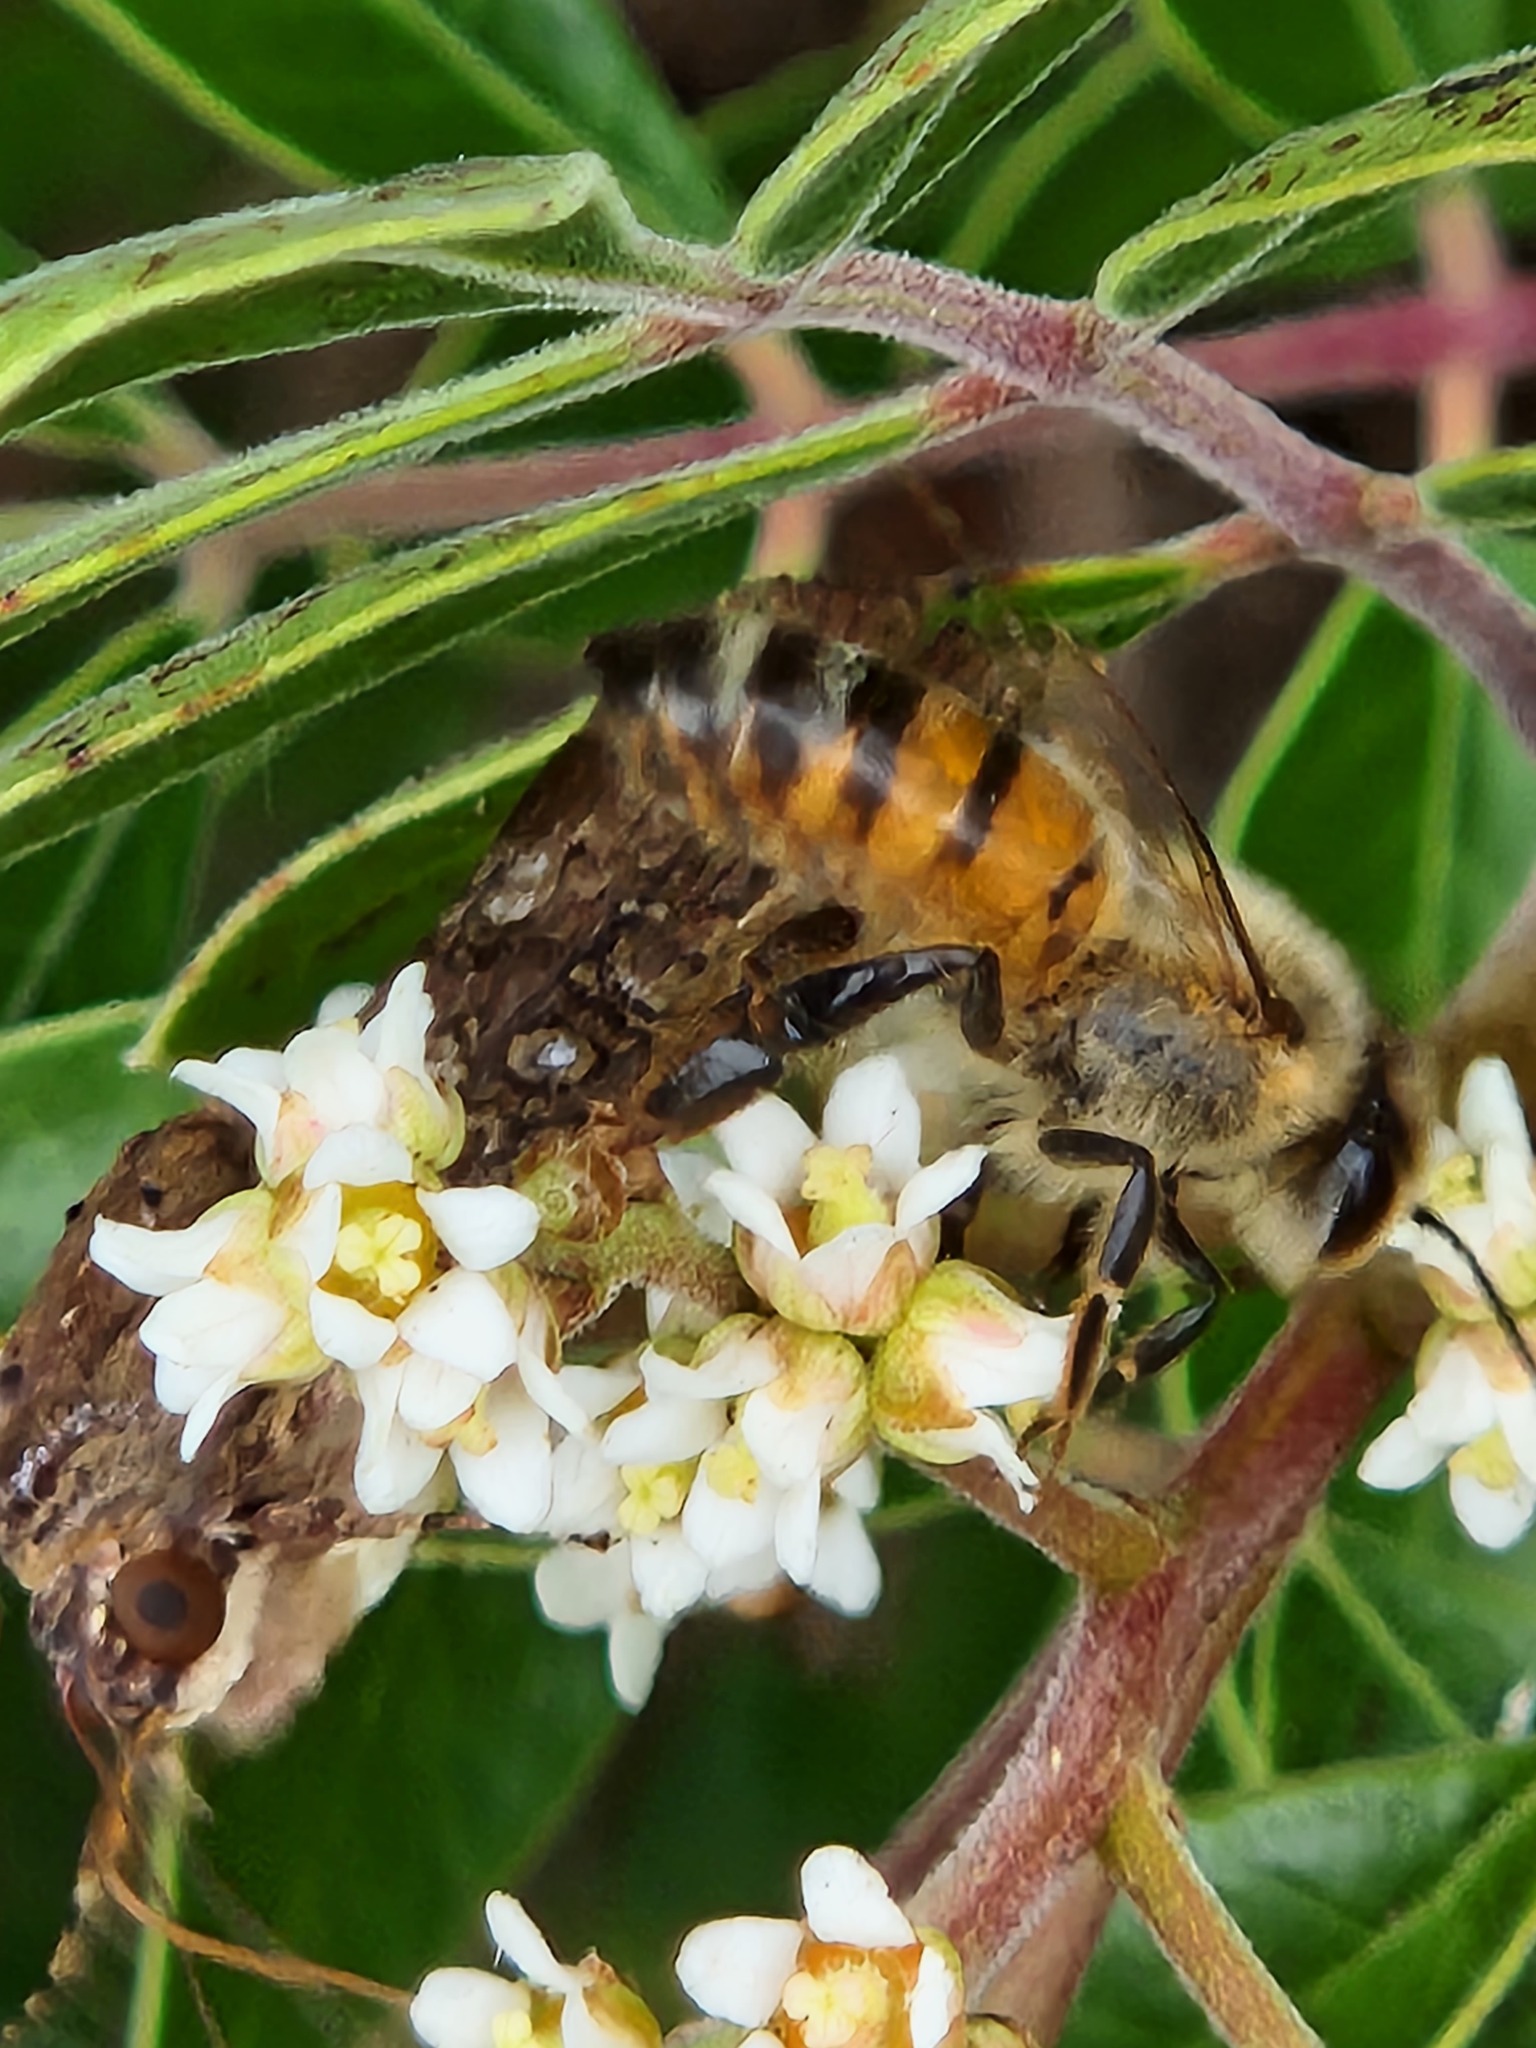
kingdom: Animalia
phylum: Arthropoda
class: Insecta
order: Hymenoptera
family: Apidae
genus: Apis
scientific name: Apis mellifera
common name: Honey bee
